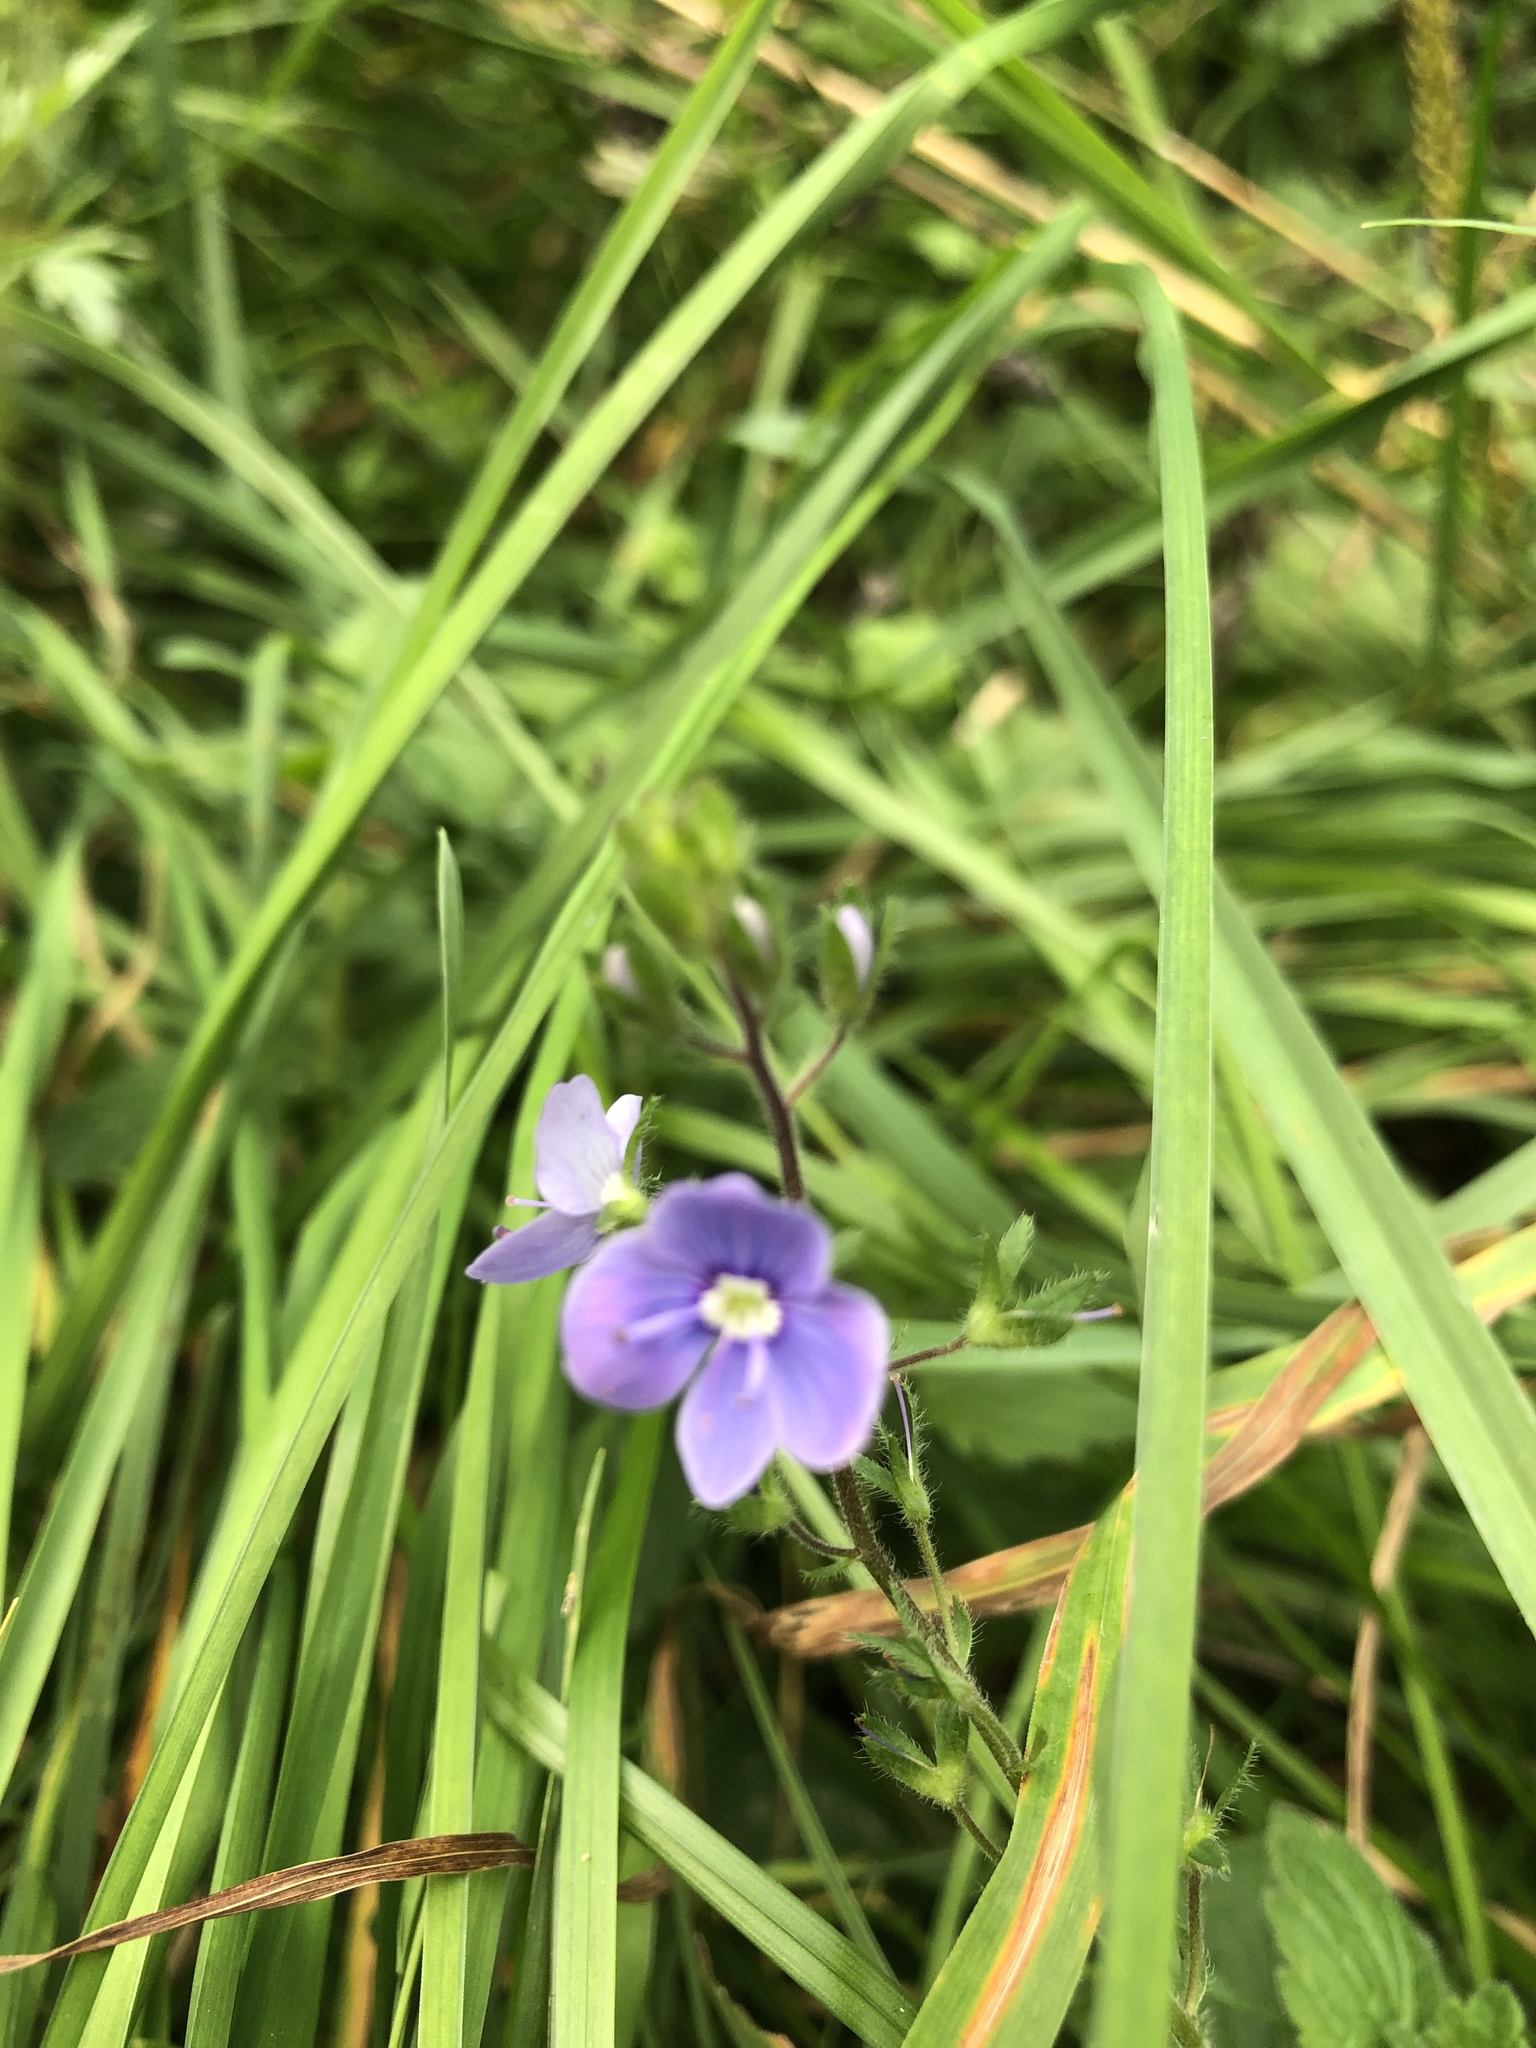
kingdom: Plantae
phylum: Tracheophyta
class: Magnoliopsida
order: Lamiales
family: Plantaginaceae
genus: Veronica
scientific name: Veronica chamaedrys
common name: Germander speedwell
